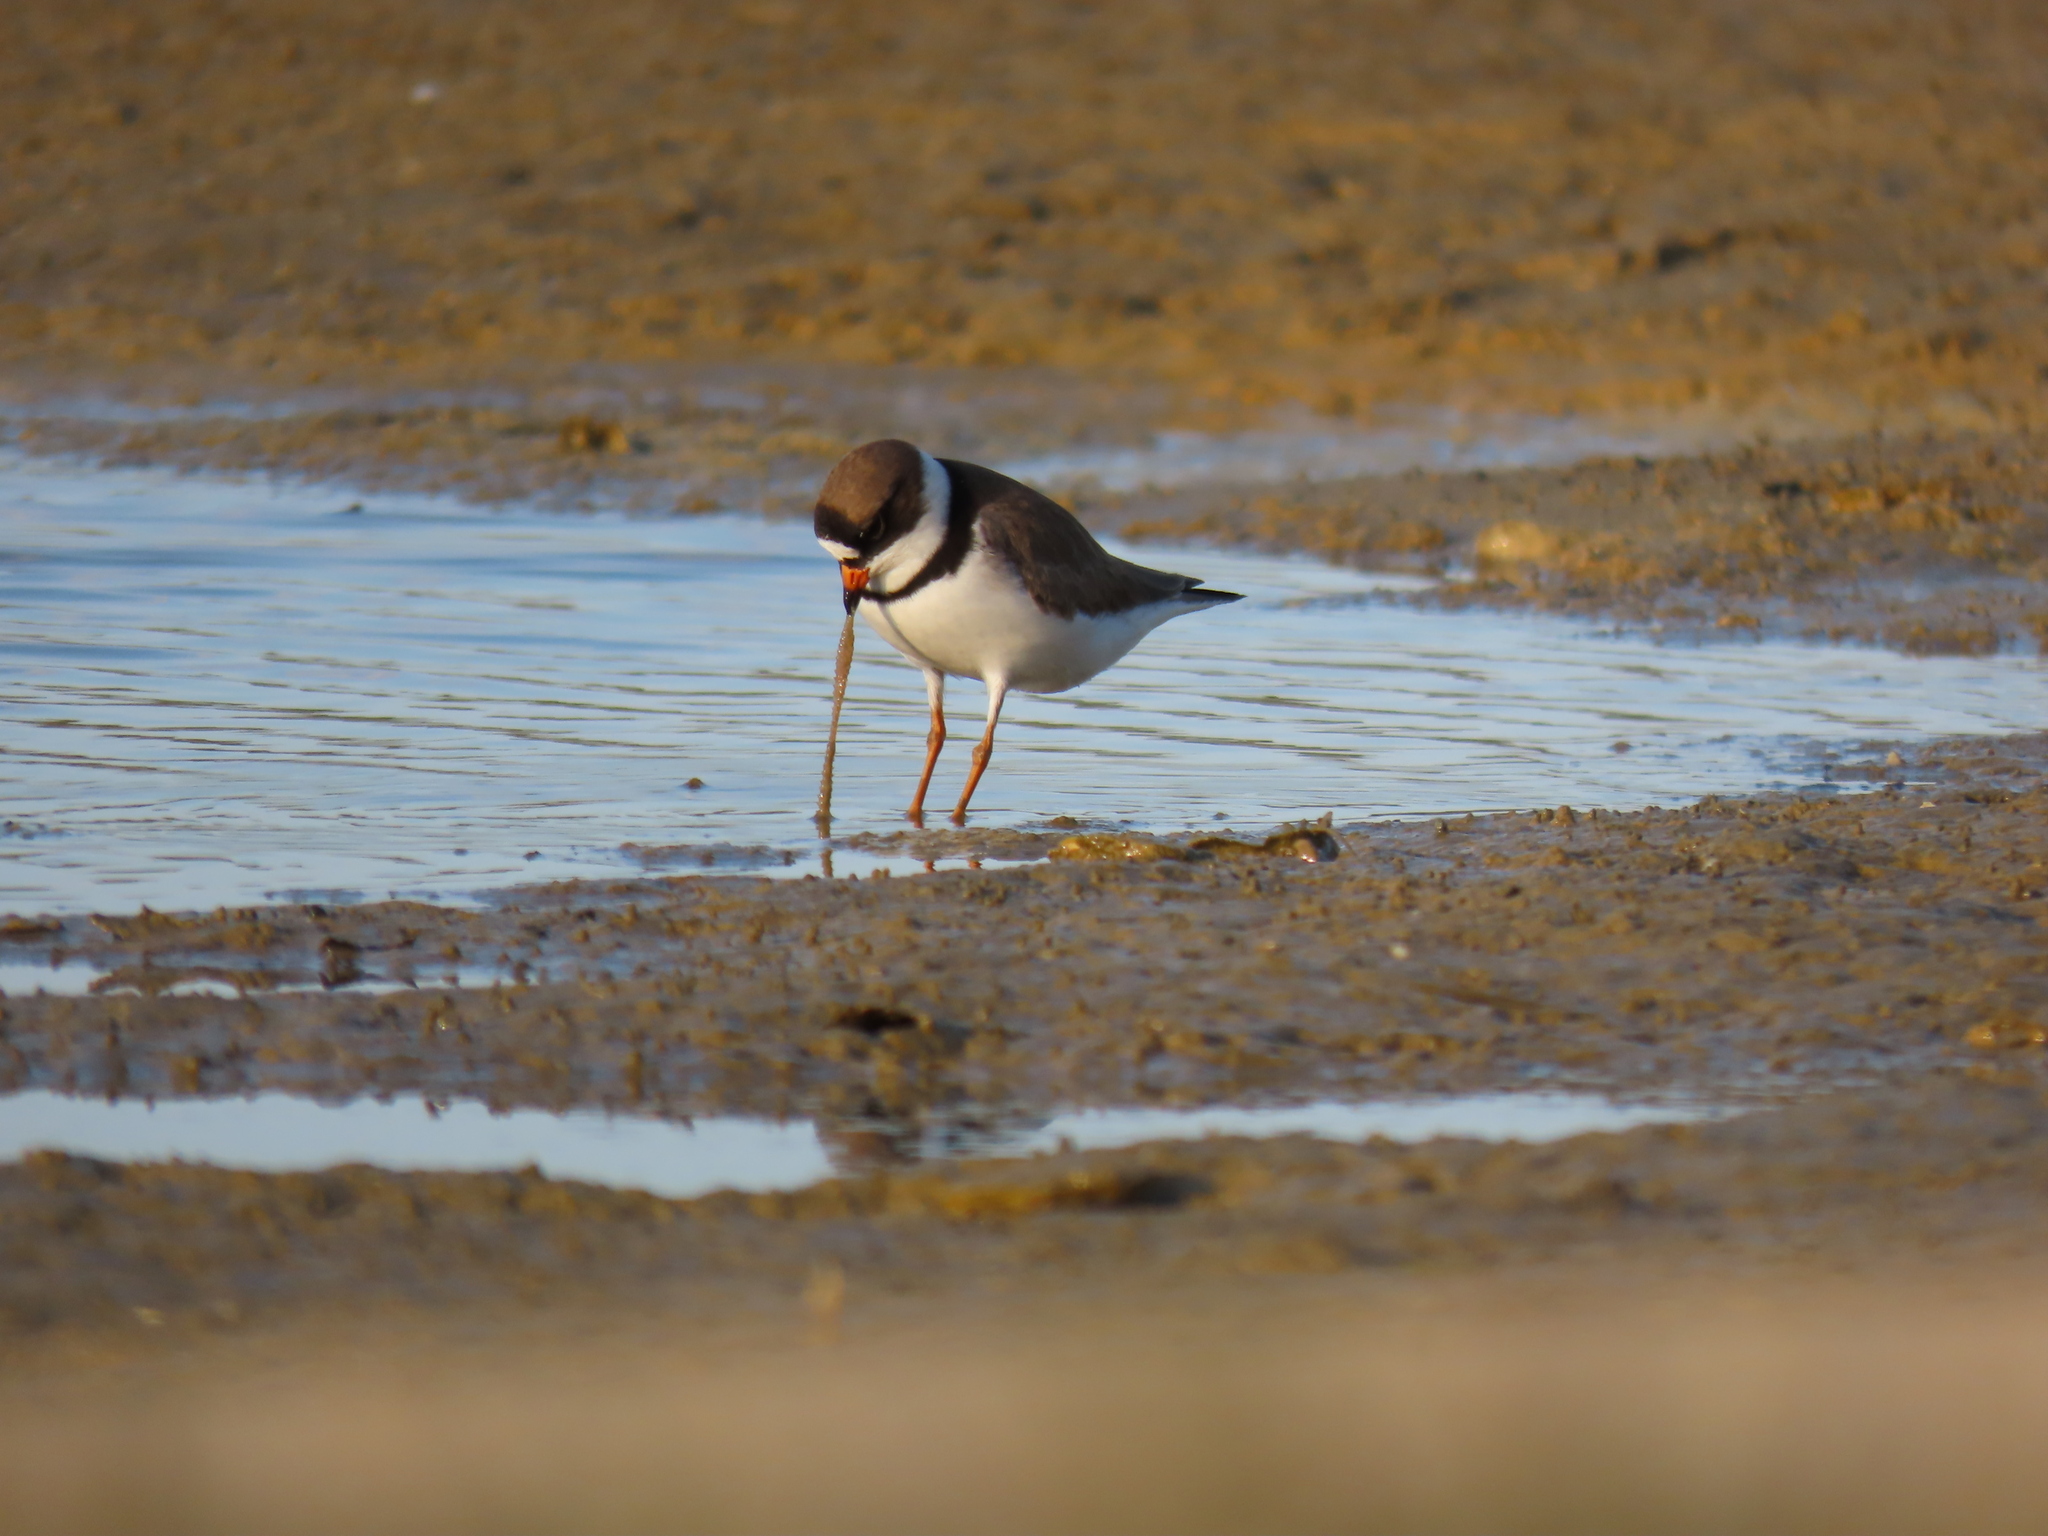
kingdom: Animalia
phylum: Chordata
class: Aves
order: Charadriiformes
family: Charadriidae
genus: Charadrius
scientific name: Charadrius semipalmatus
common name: Semipalmated plover
